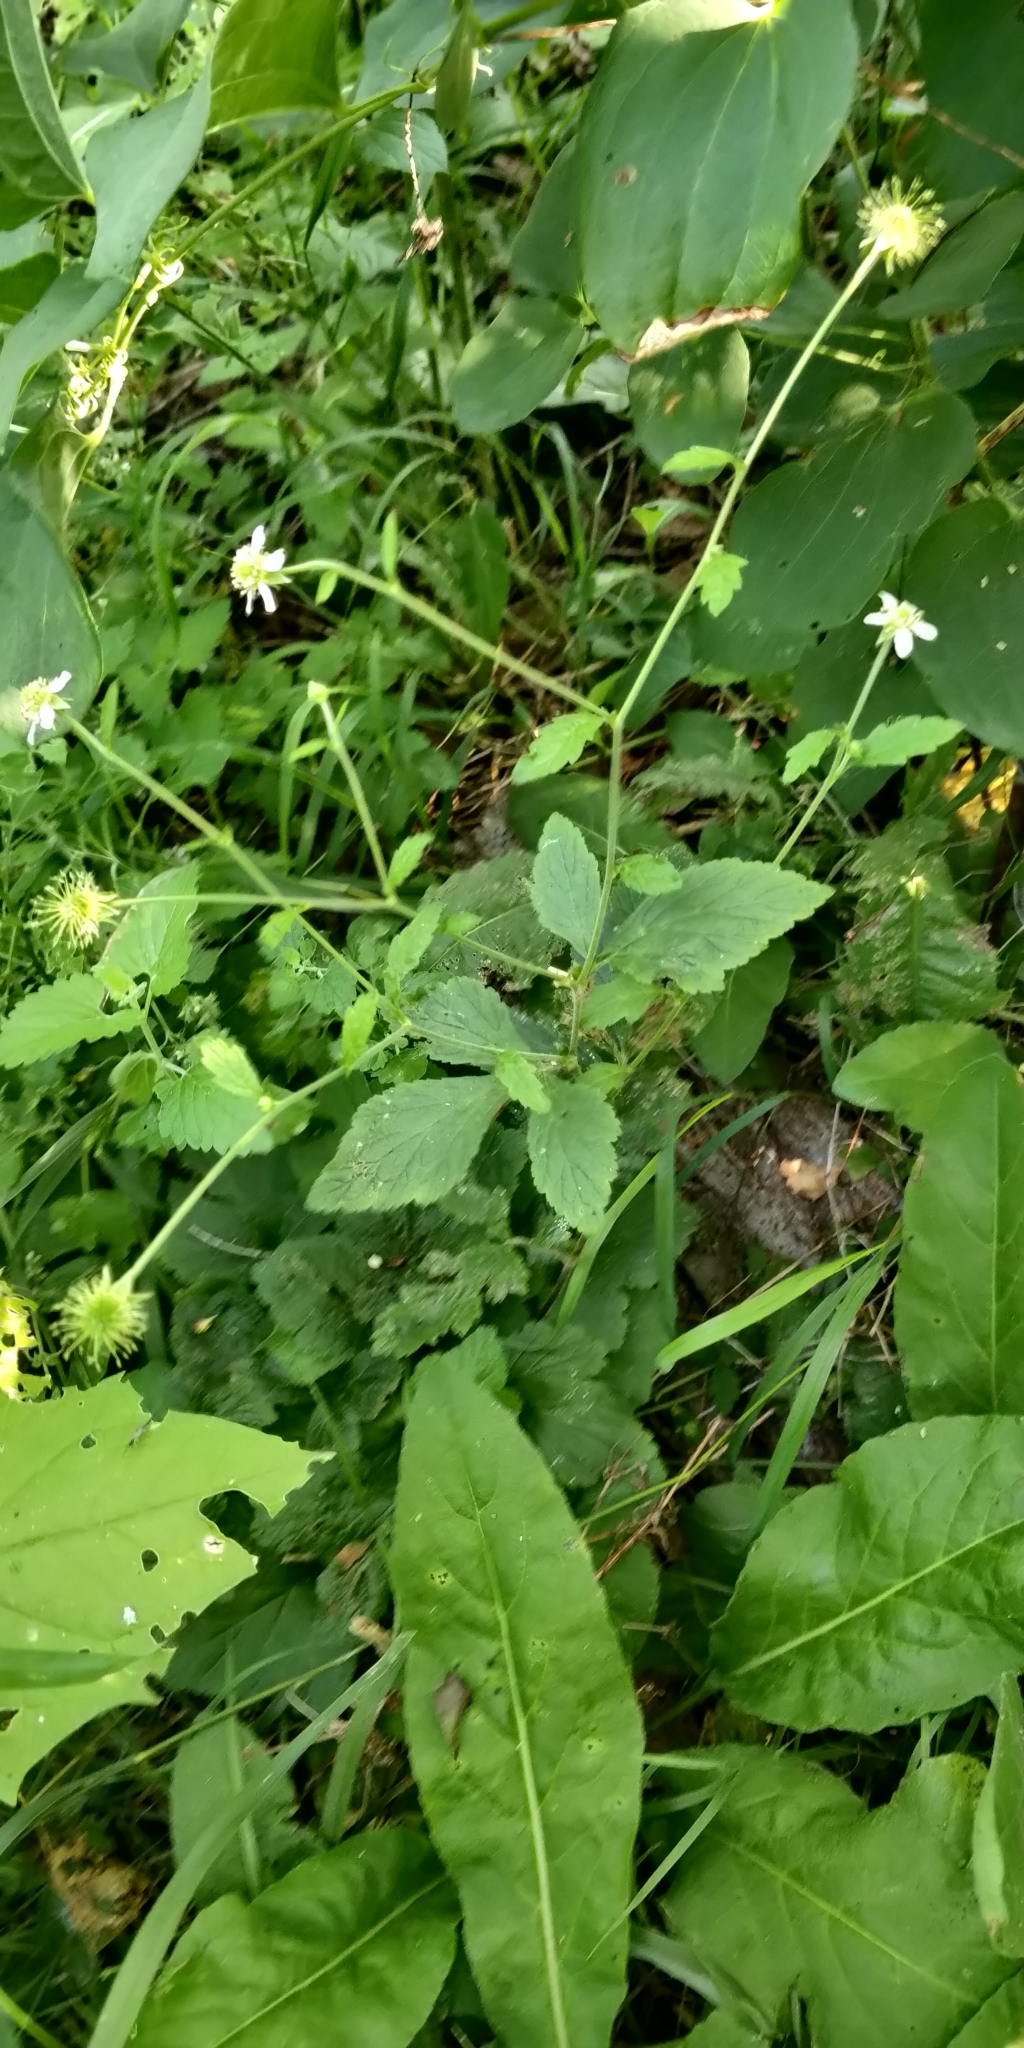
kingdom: Plantae
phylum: Tracheophyta
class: Magnoliopsida
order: Rosales
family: Rosaceae
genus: Geum
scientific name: Geum canadense
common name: White avens
